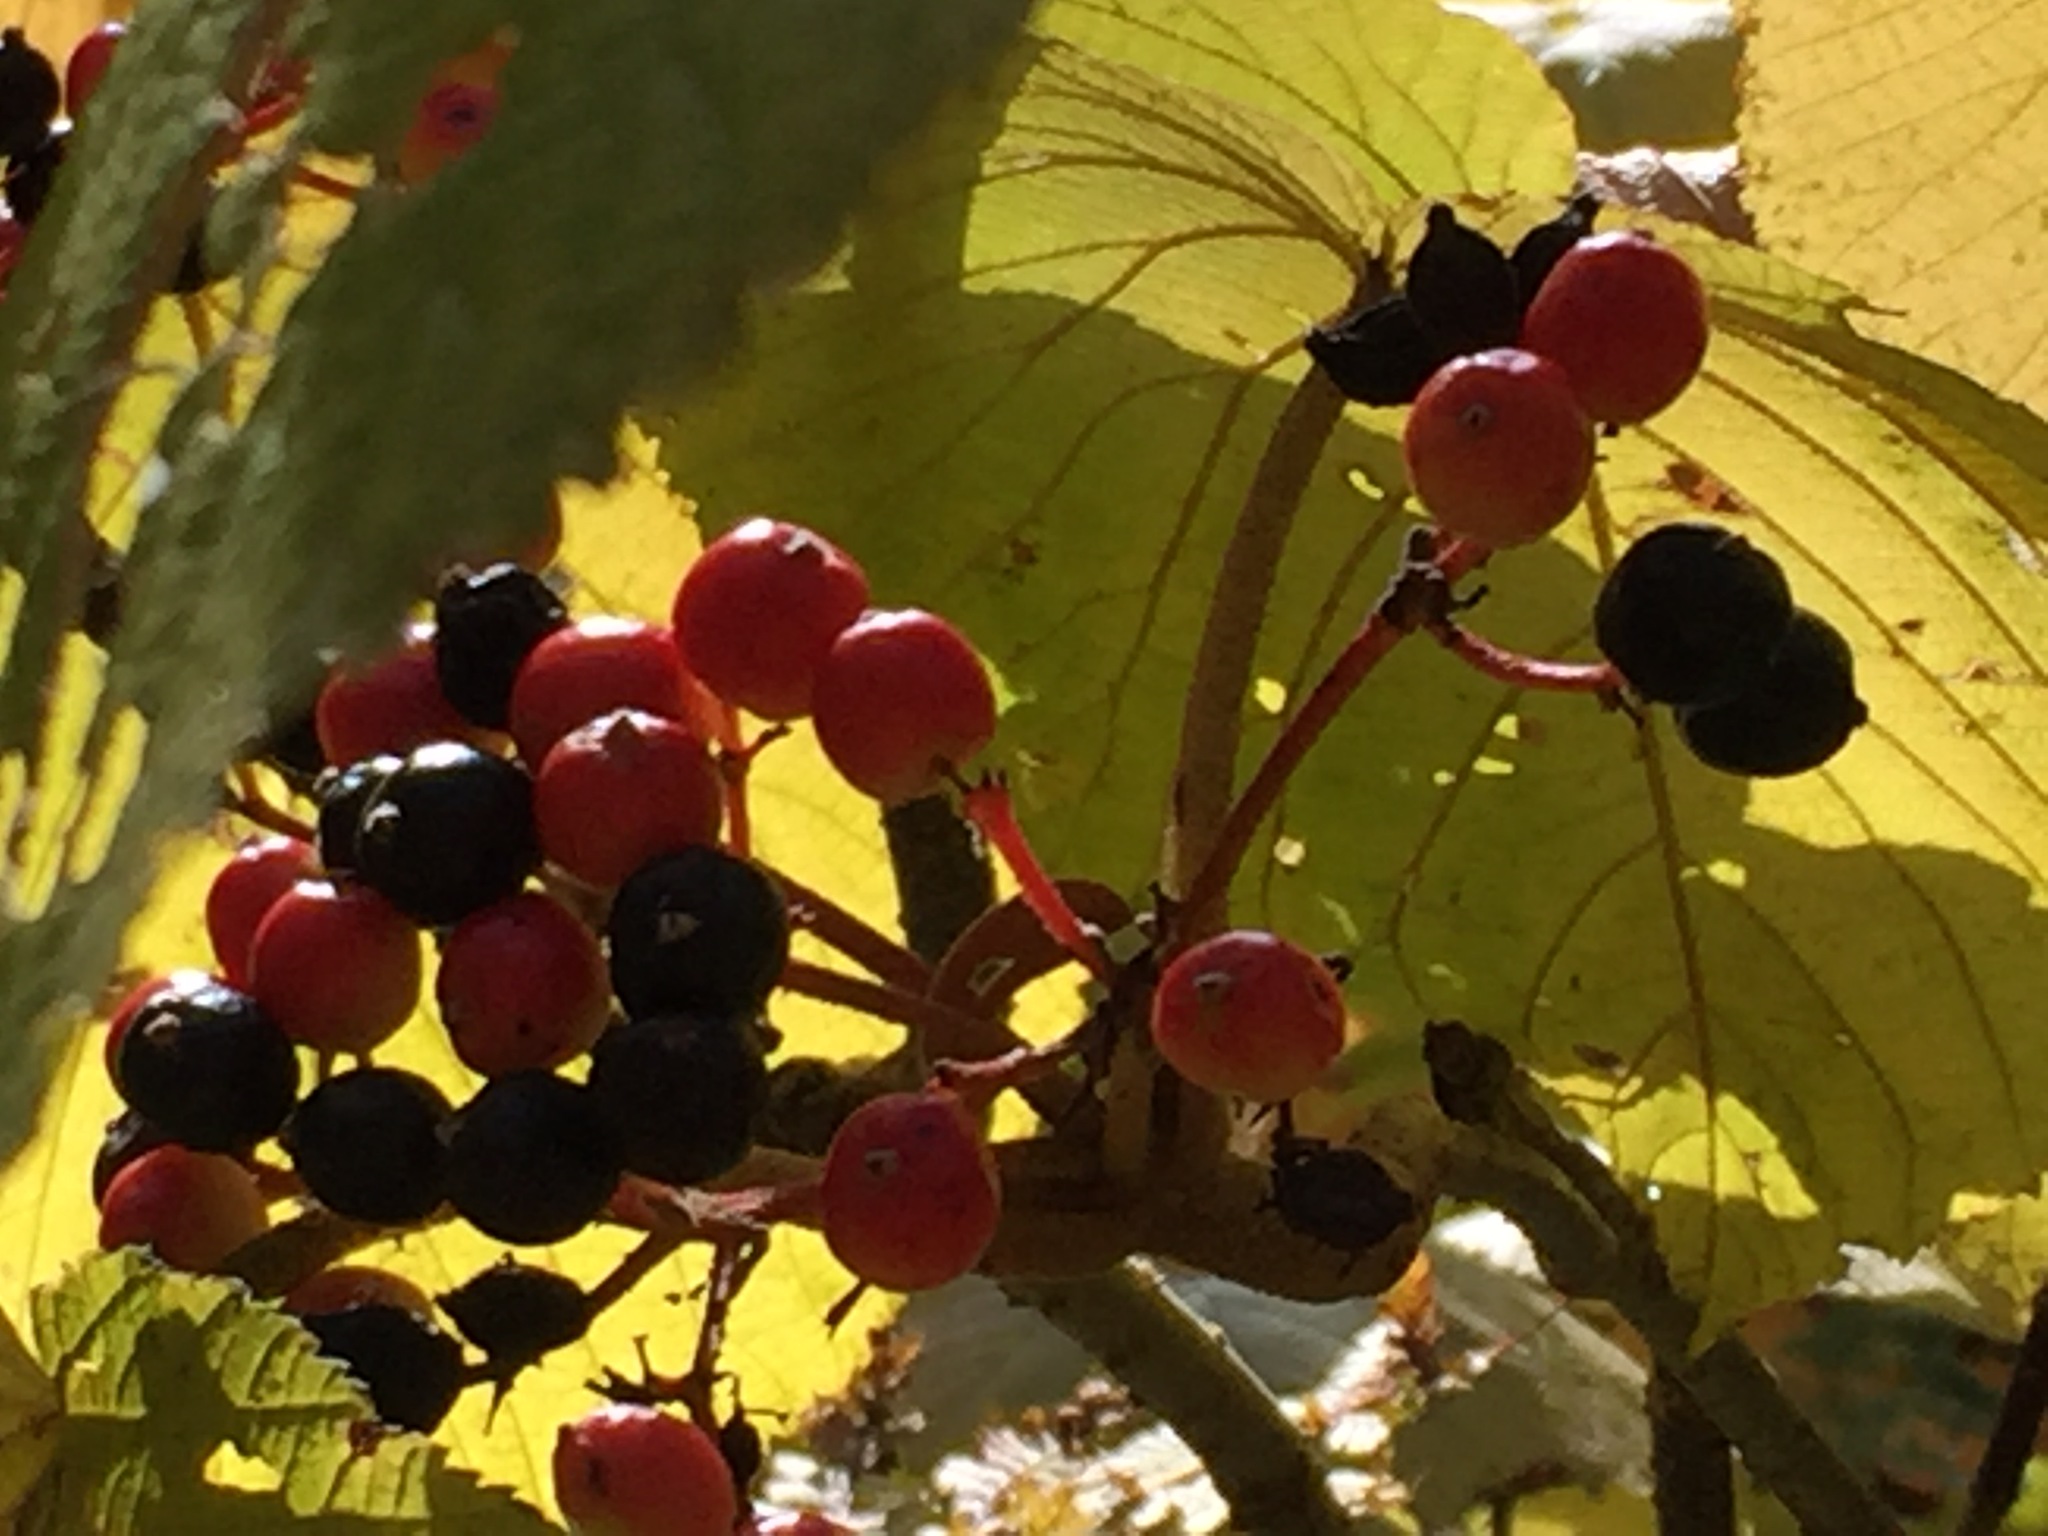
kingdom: Plantae
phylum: Tracheophyta
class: Magnoliopsida
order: Dipsacales
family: Viburnaceae
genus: Viburnum
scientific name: Viburnum lantanoides
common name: Hobblebush
